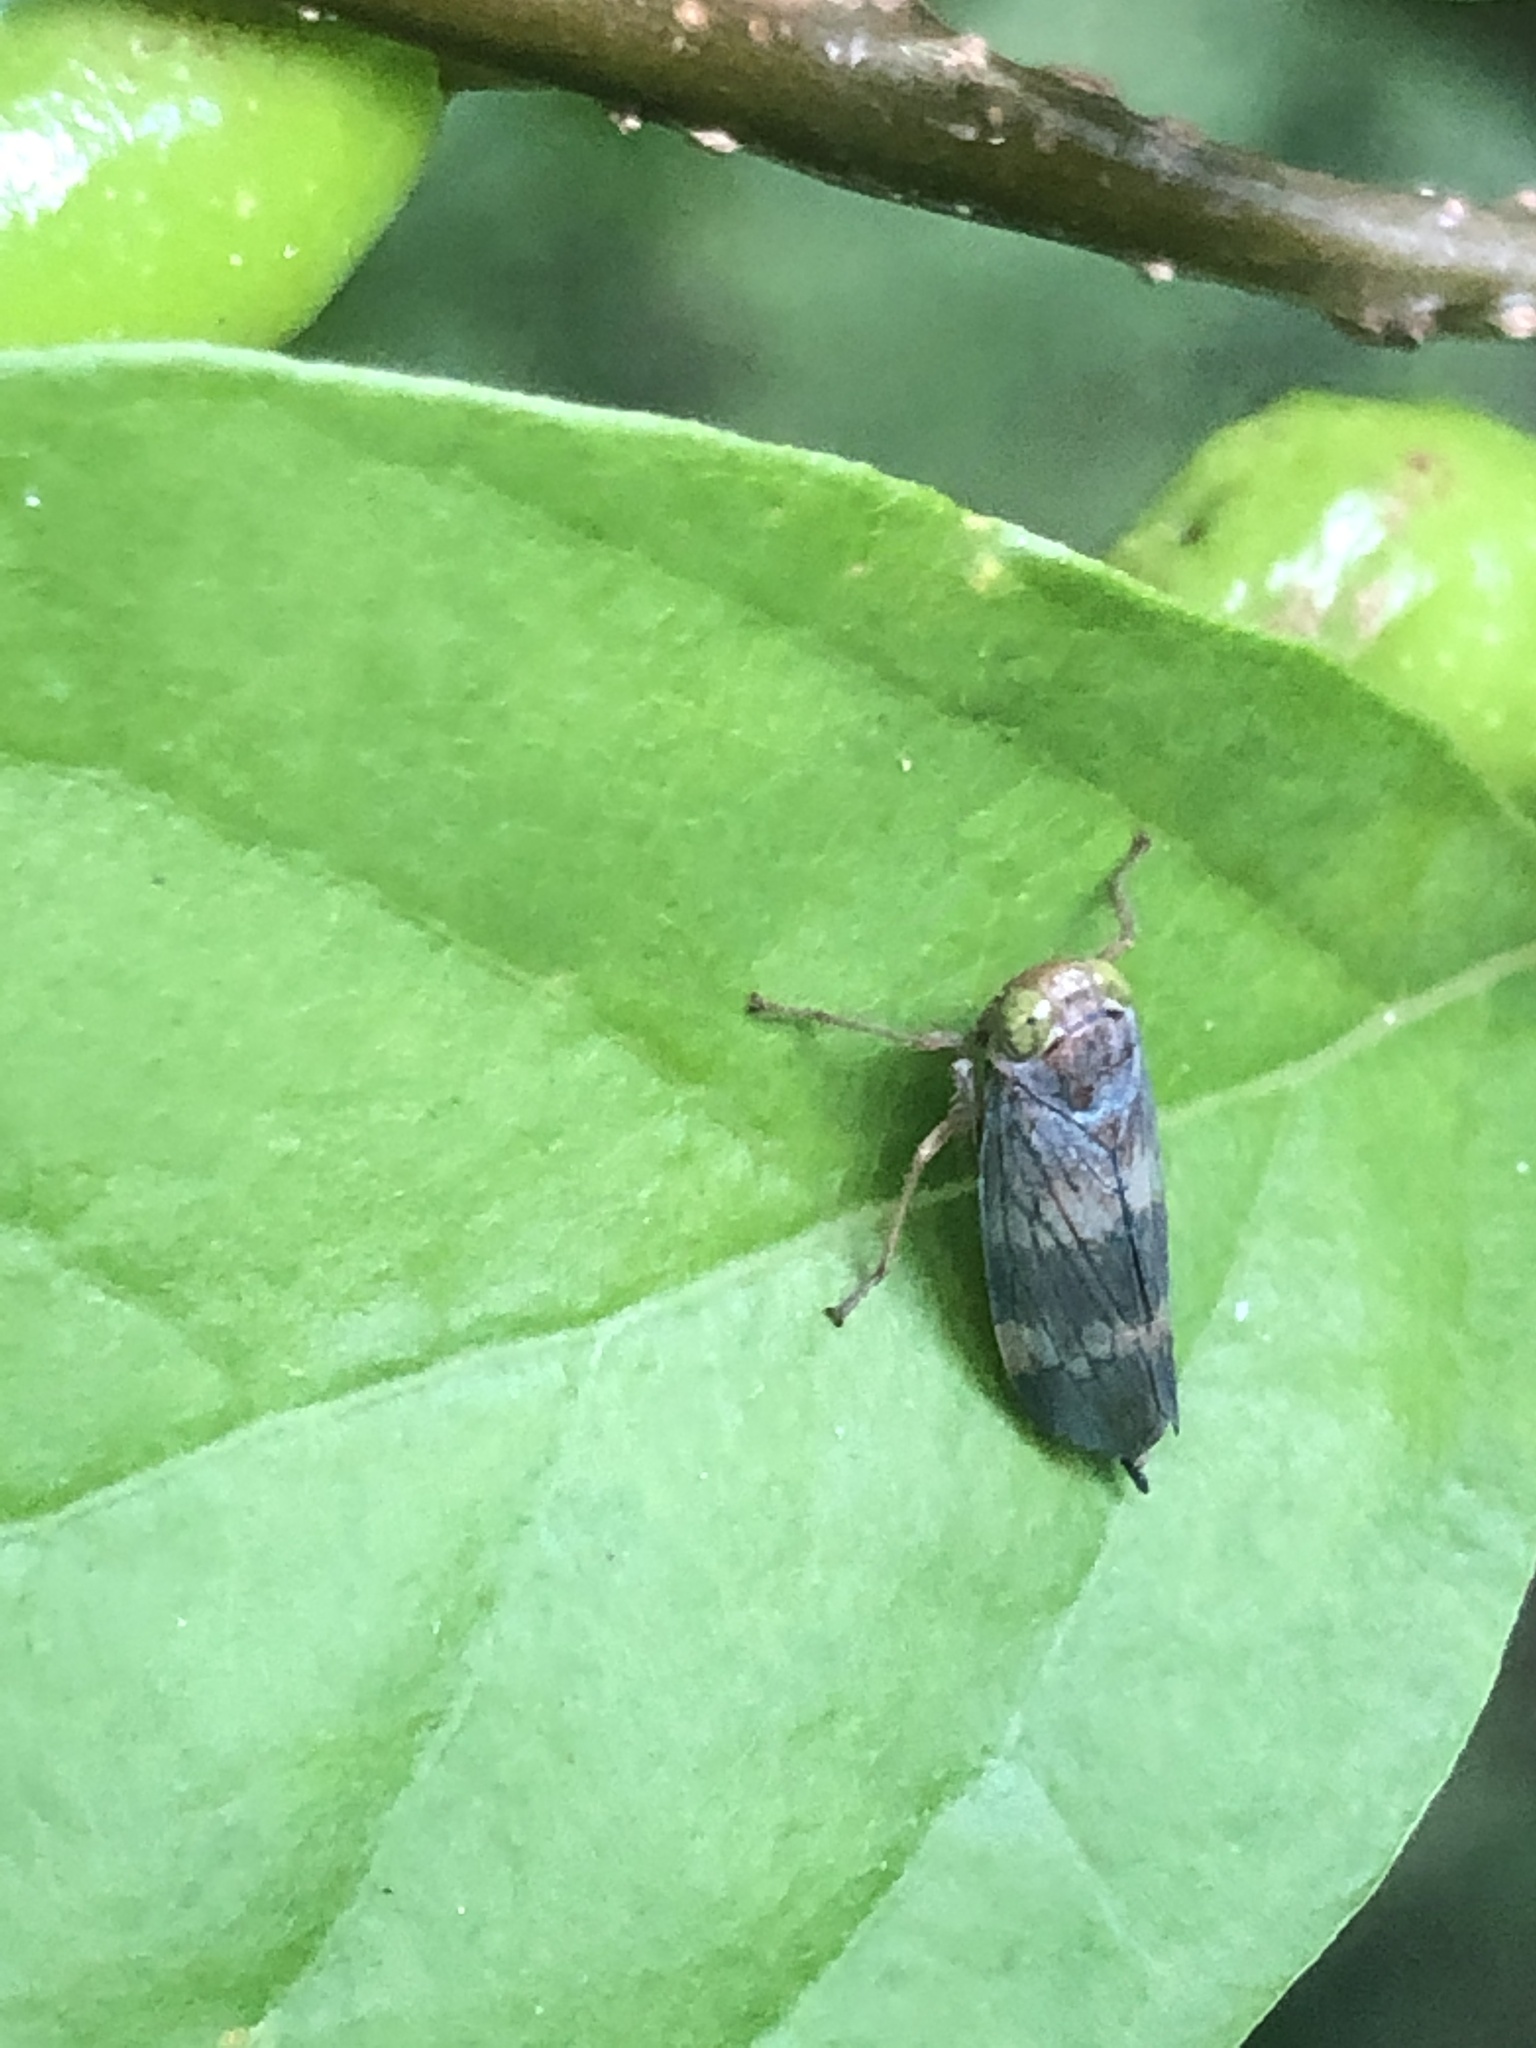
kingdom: Animalia
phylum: Arthropoda
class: Insecta
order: Hemiptera
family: Cicadellidae
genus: Jikradia
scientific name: Jikradia olitoria
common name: Coppery leafhopper
